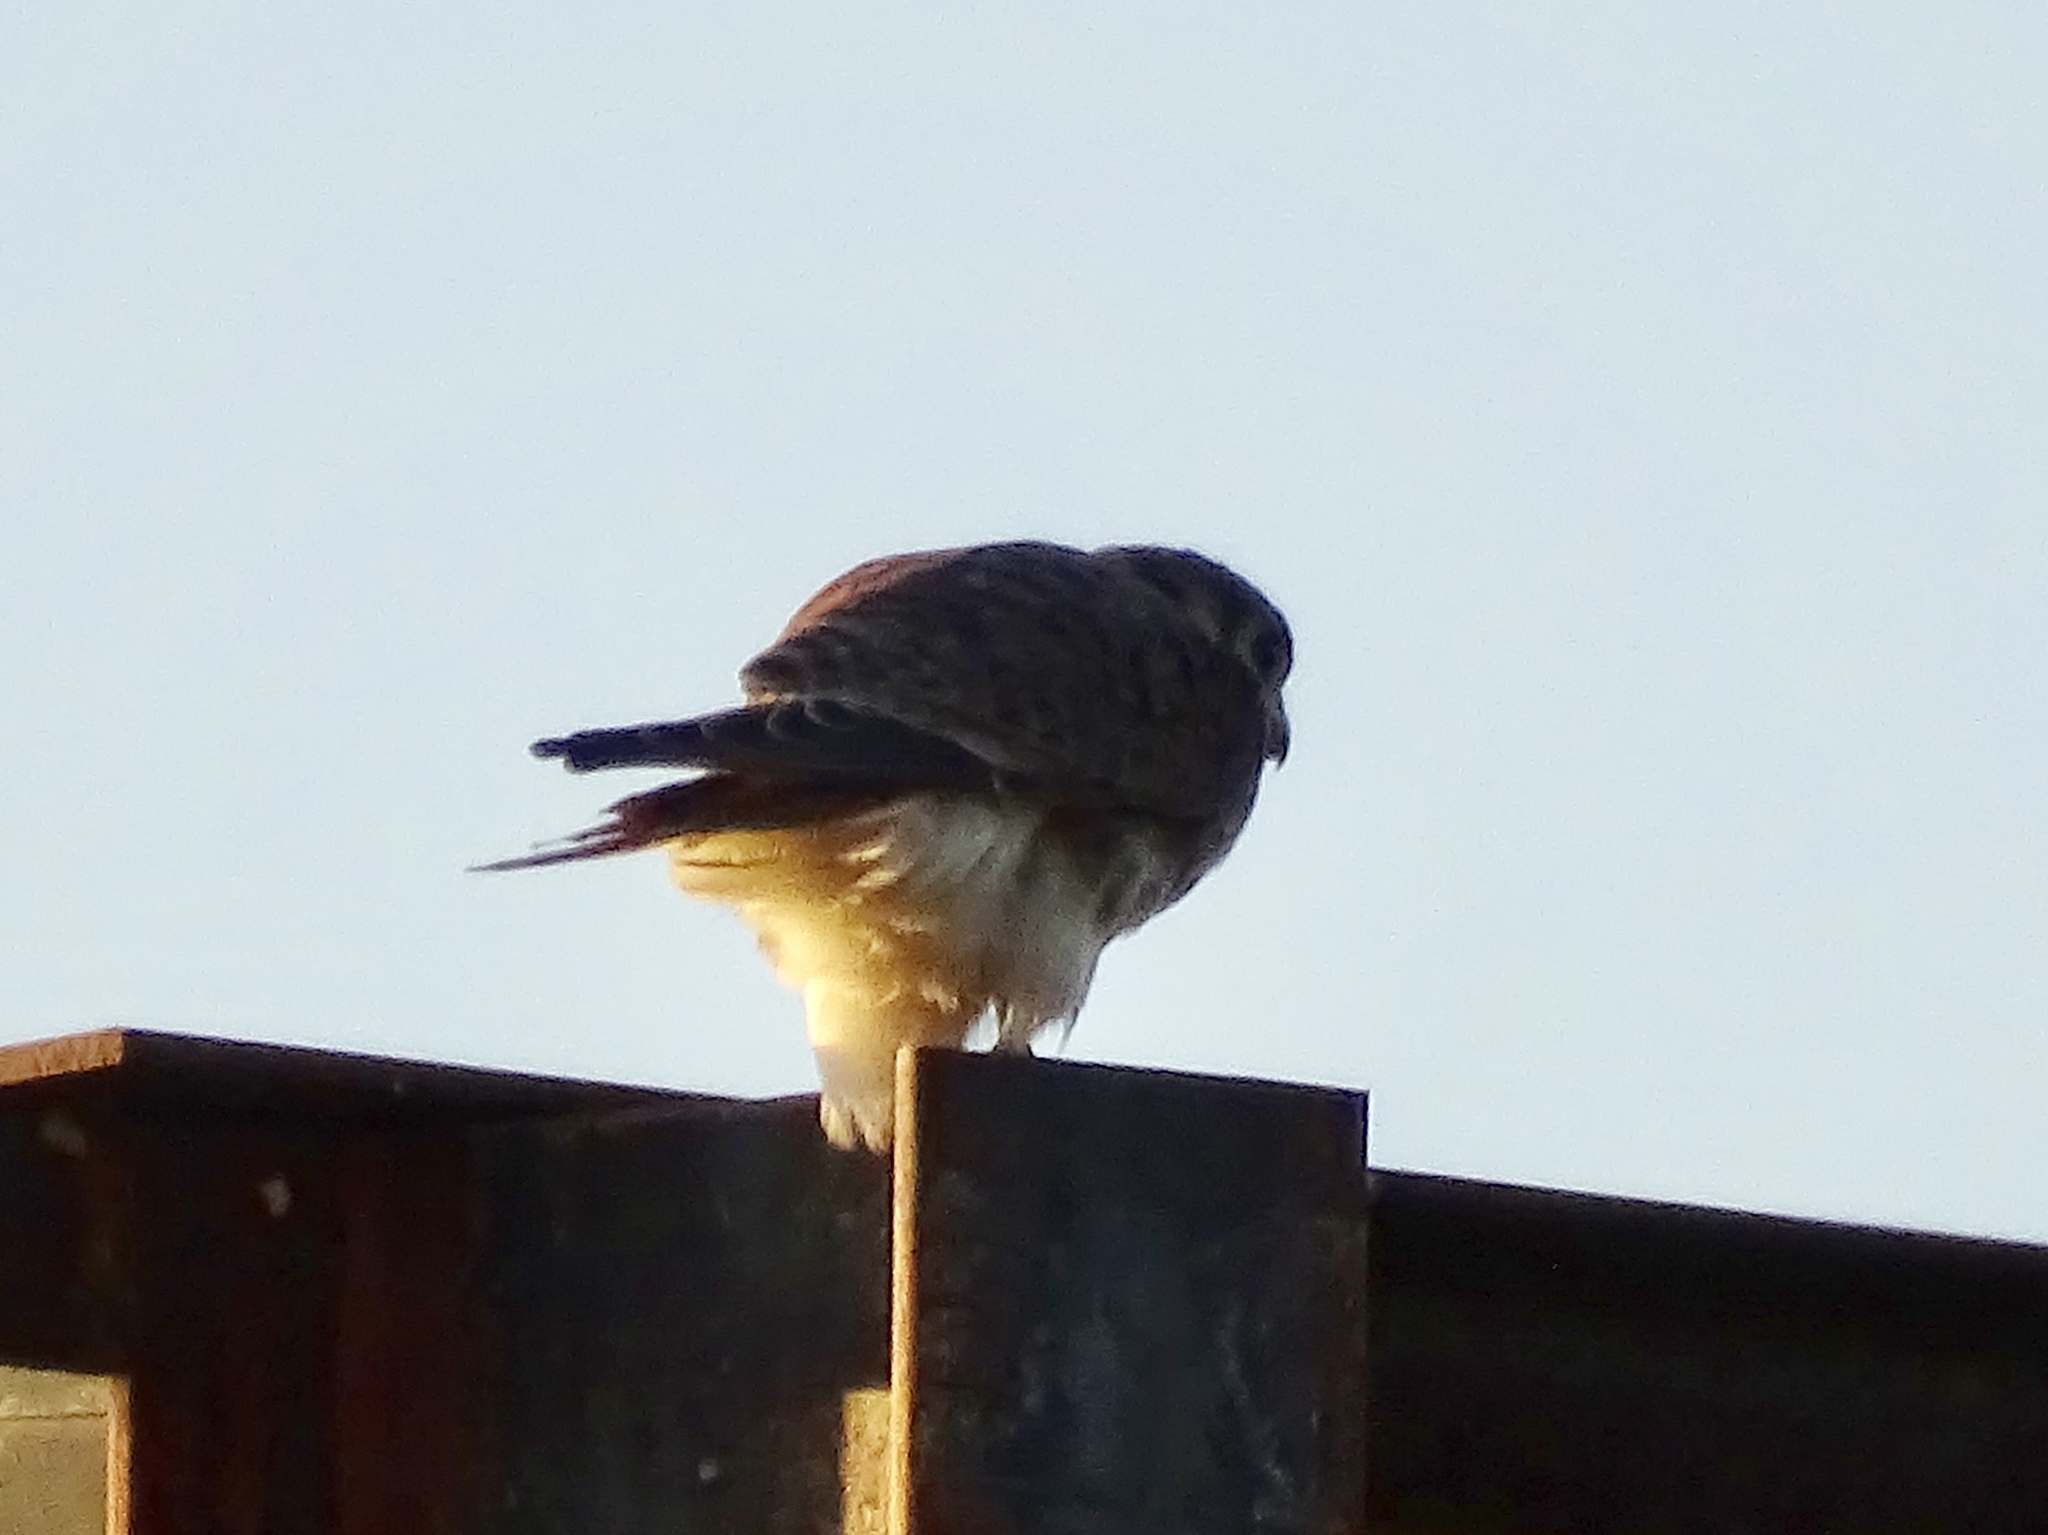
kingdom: Animalia
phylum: Chordata
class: Aves
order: Falconiformes
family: Falconidae
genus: Falco
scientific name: Falco sparverius
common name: American kestrel
